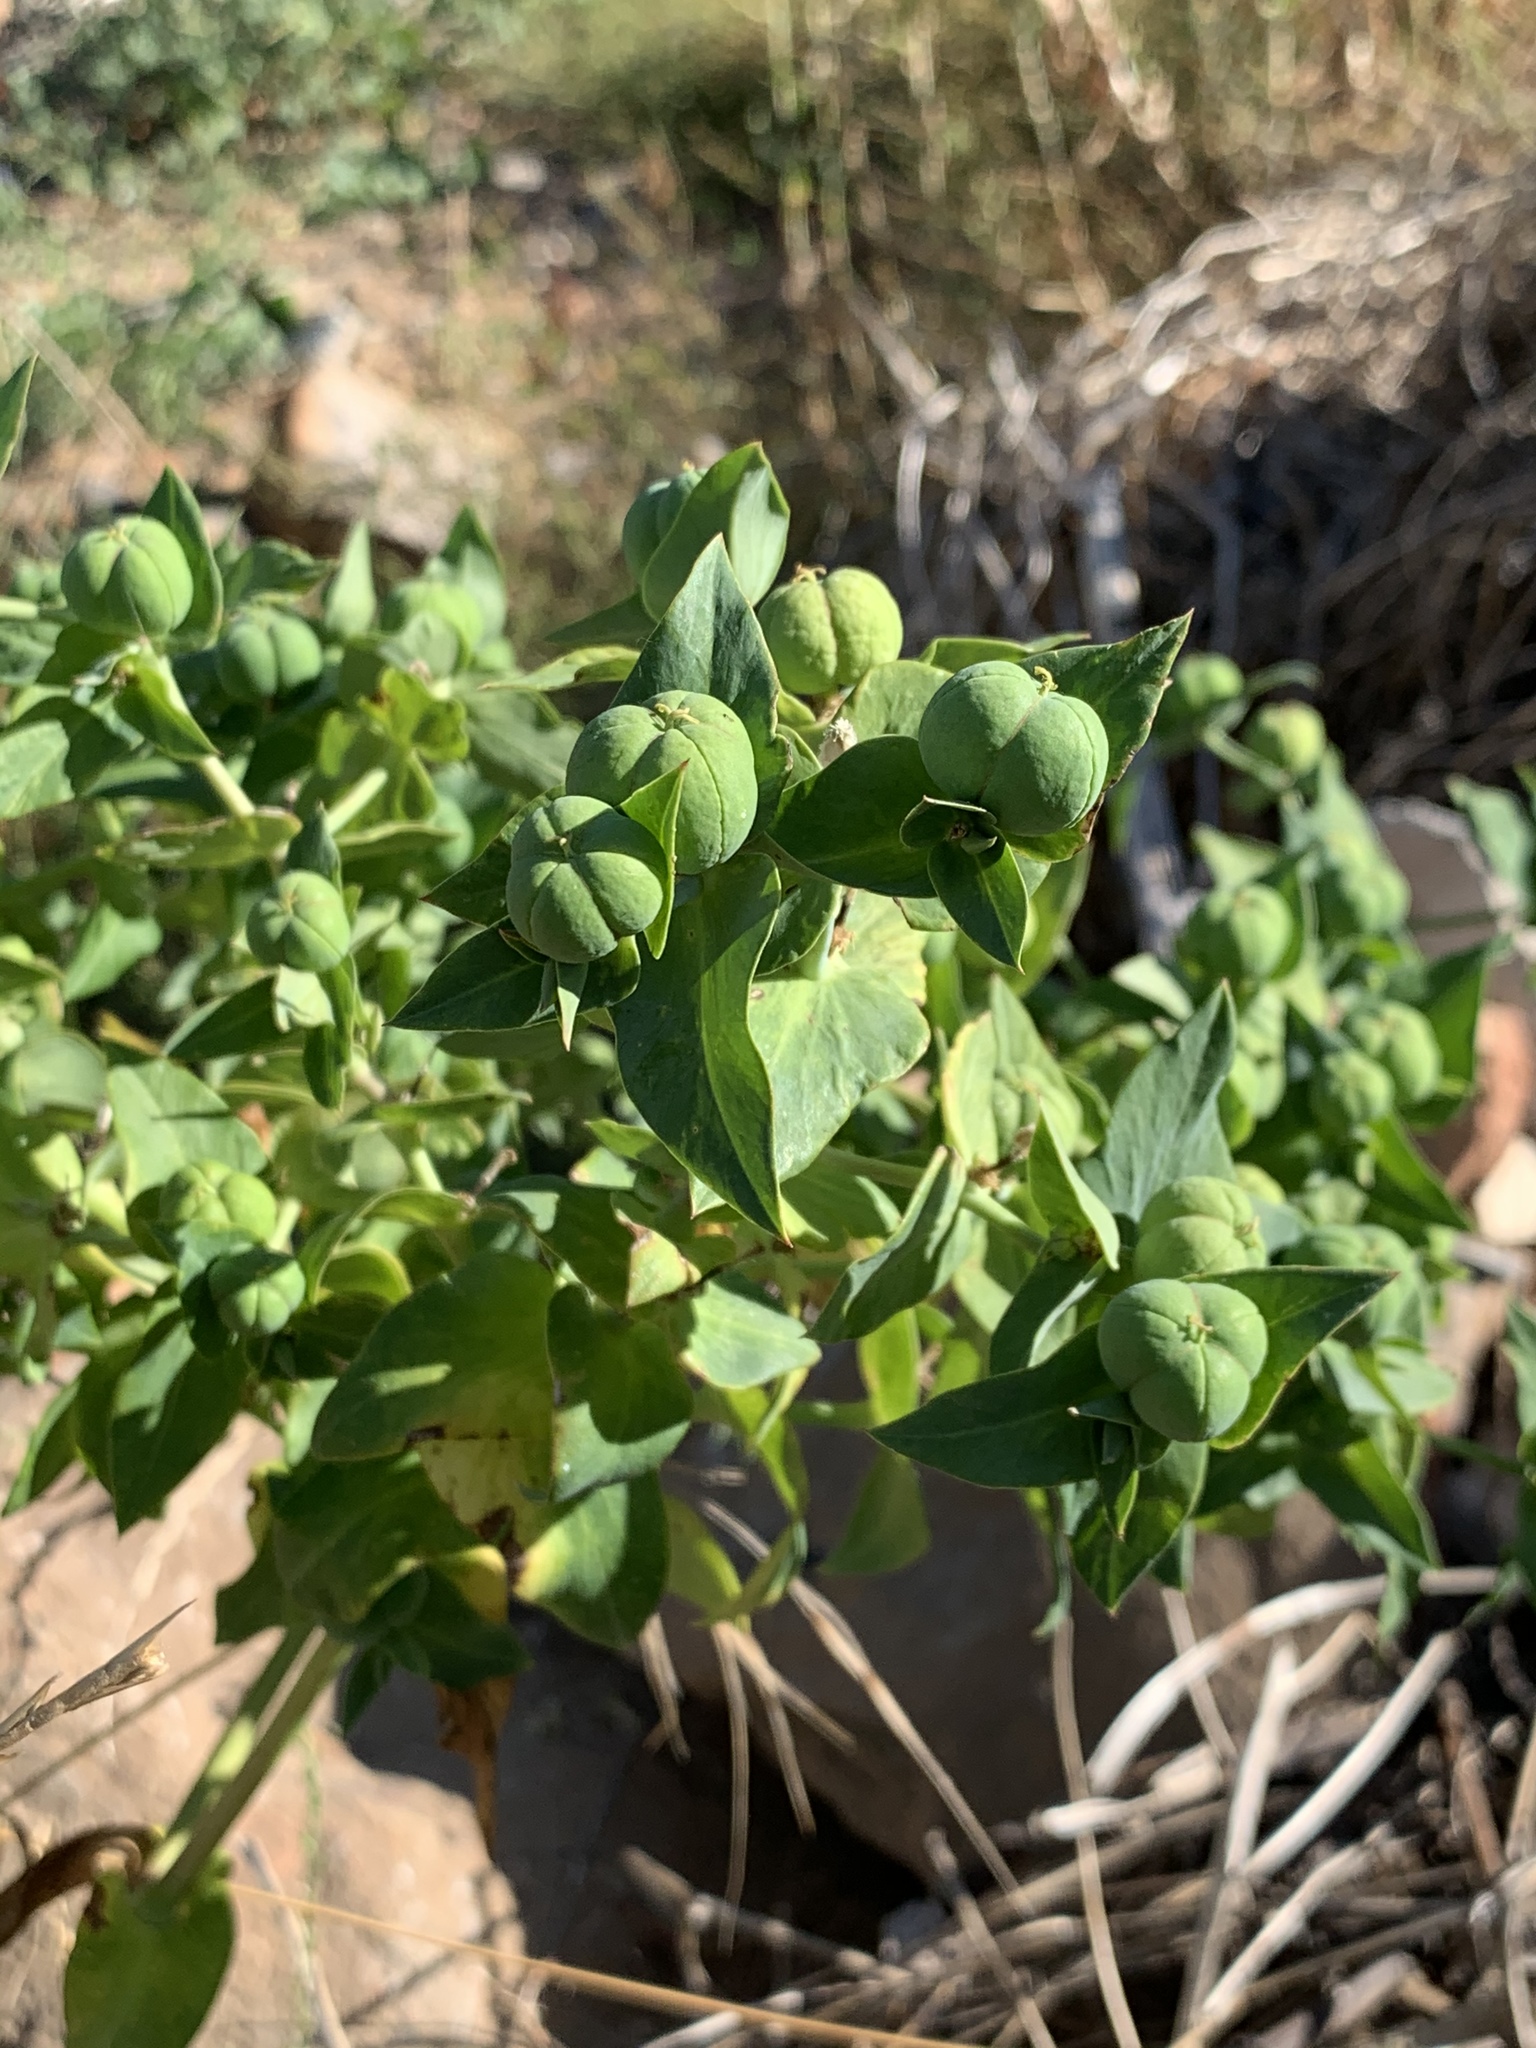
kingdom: Plantae
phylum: Tracheophyta
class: Magnoliopsida
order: Malpighiales
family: Euphorbiaceae
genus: Euphorbia
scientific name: Euphorbia lathyris
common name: Caper spurge
